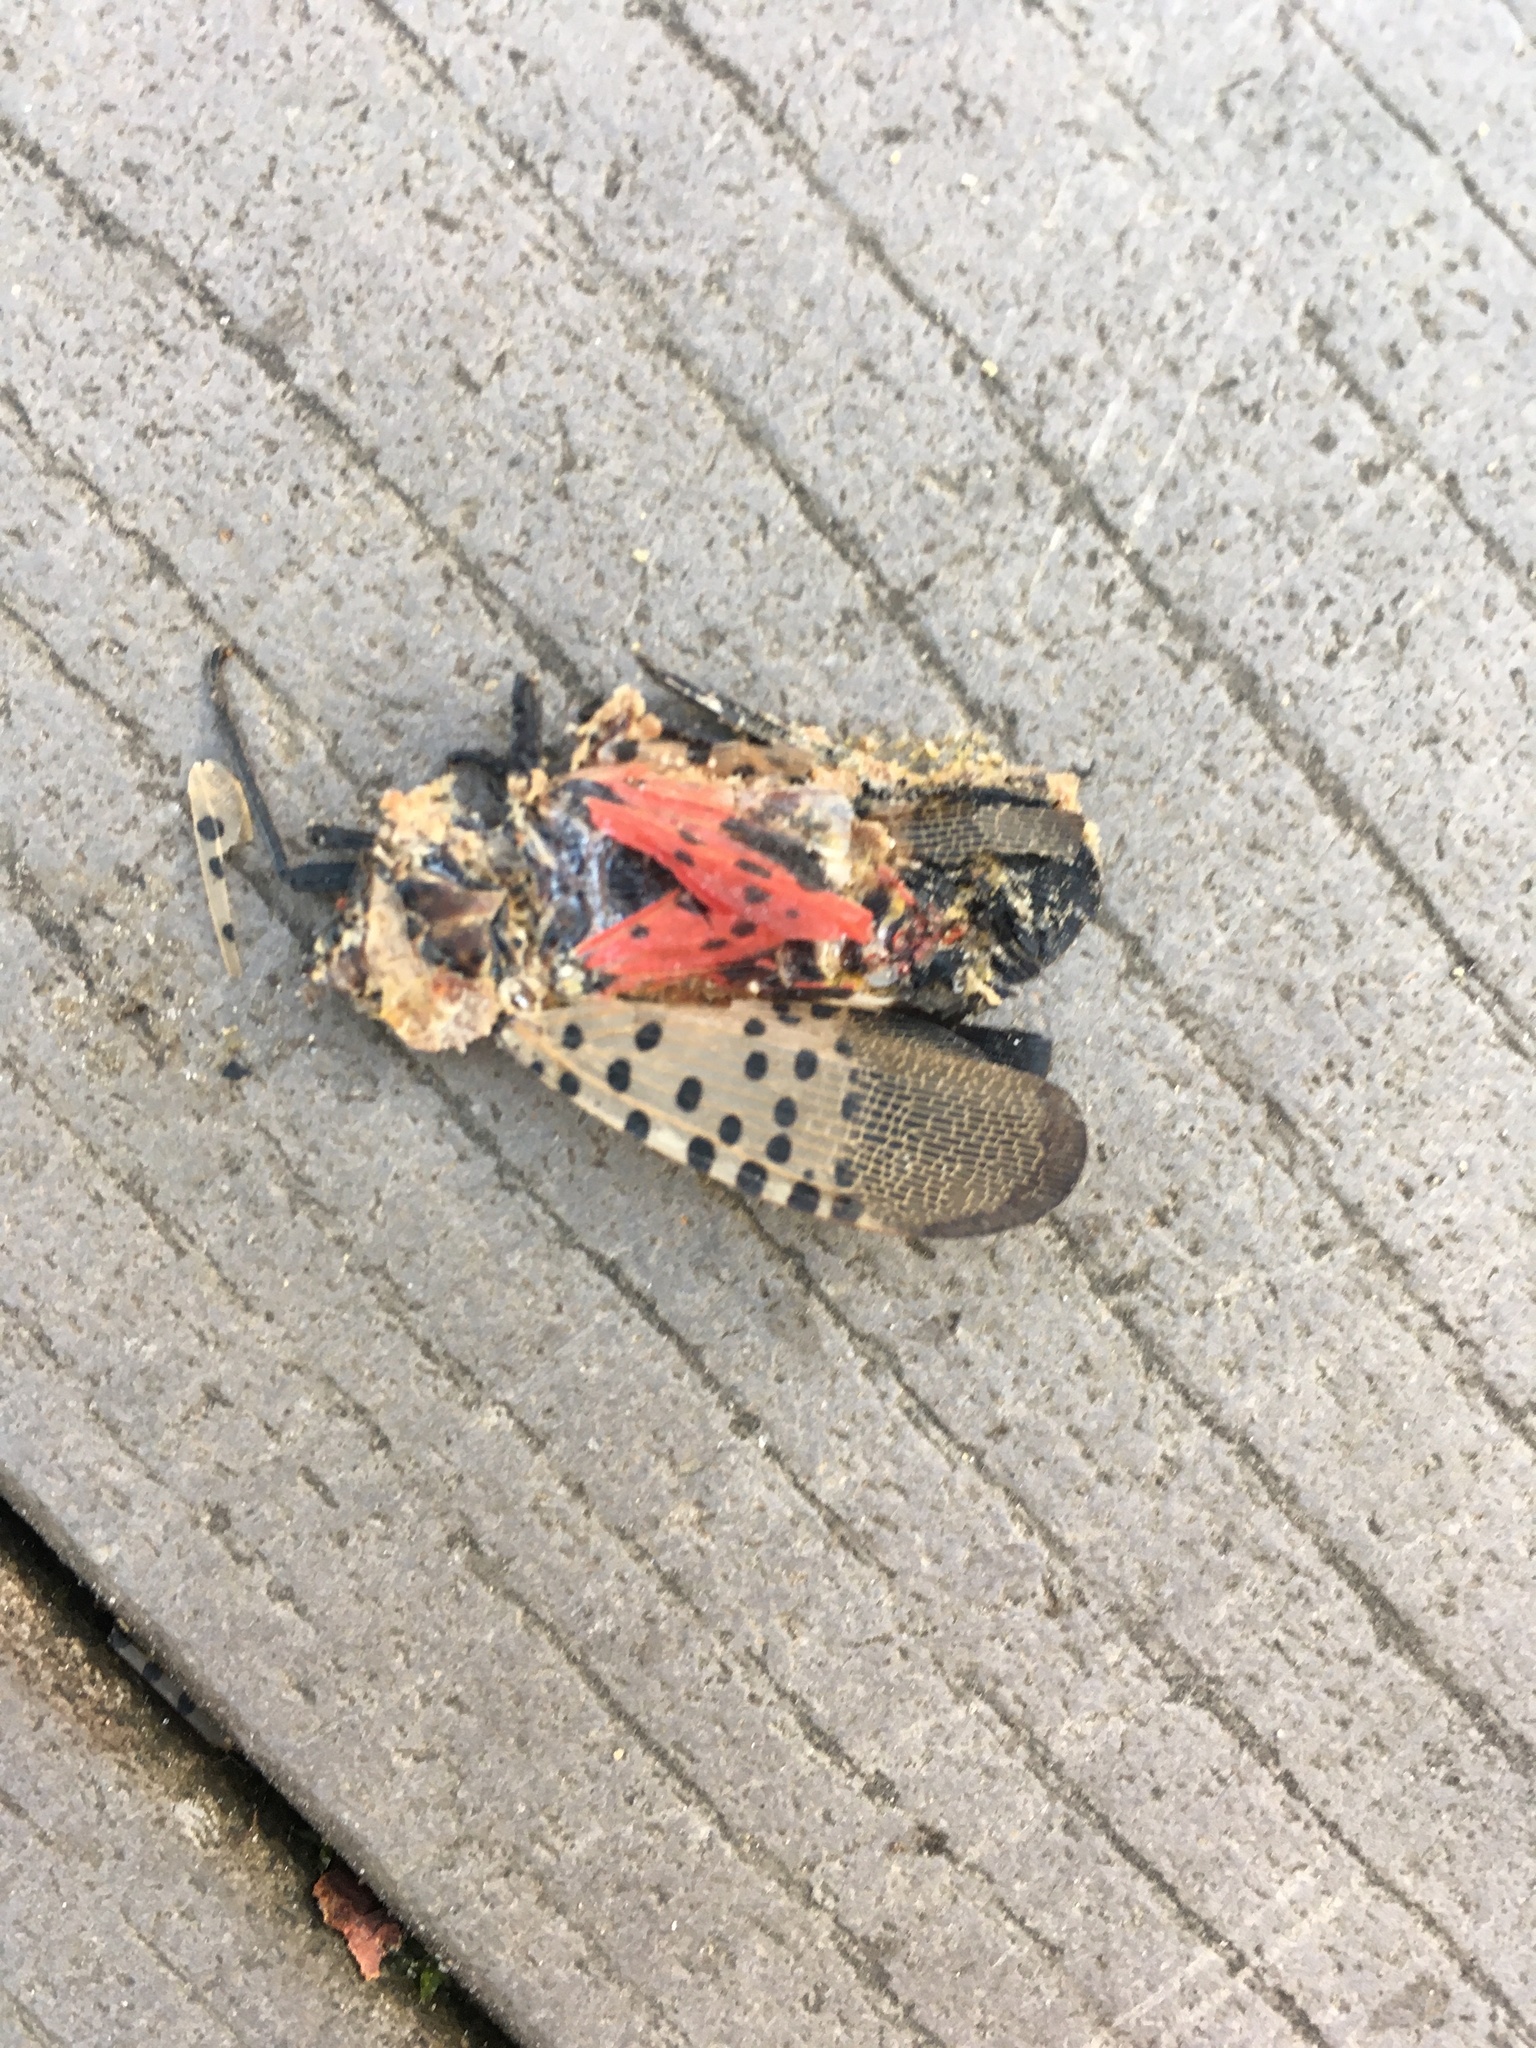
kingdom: Animalia
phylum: Arthropoda
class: Insecta
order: Hemiptera
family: Fulgoridae
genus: Lycorma
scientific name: Lycorma delicatula
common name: Spotted lanternfly
